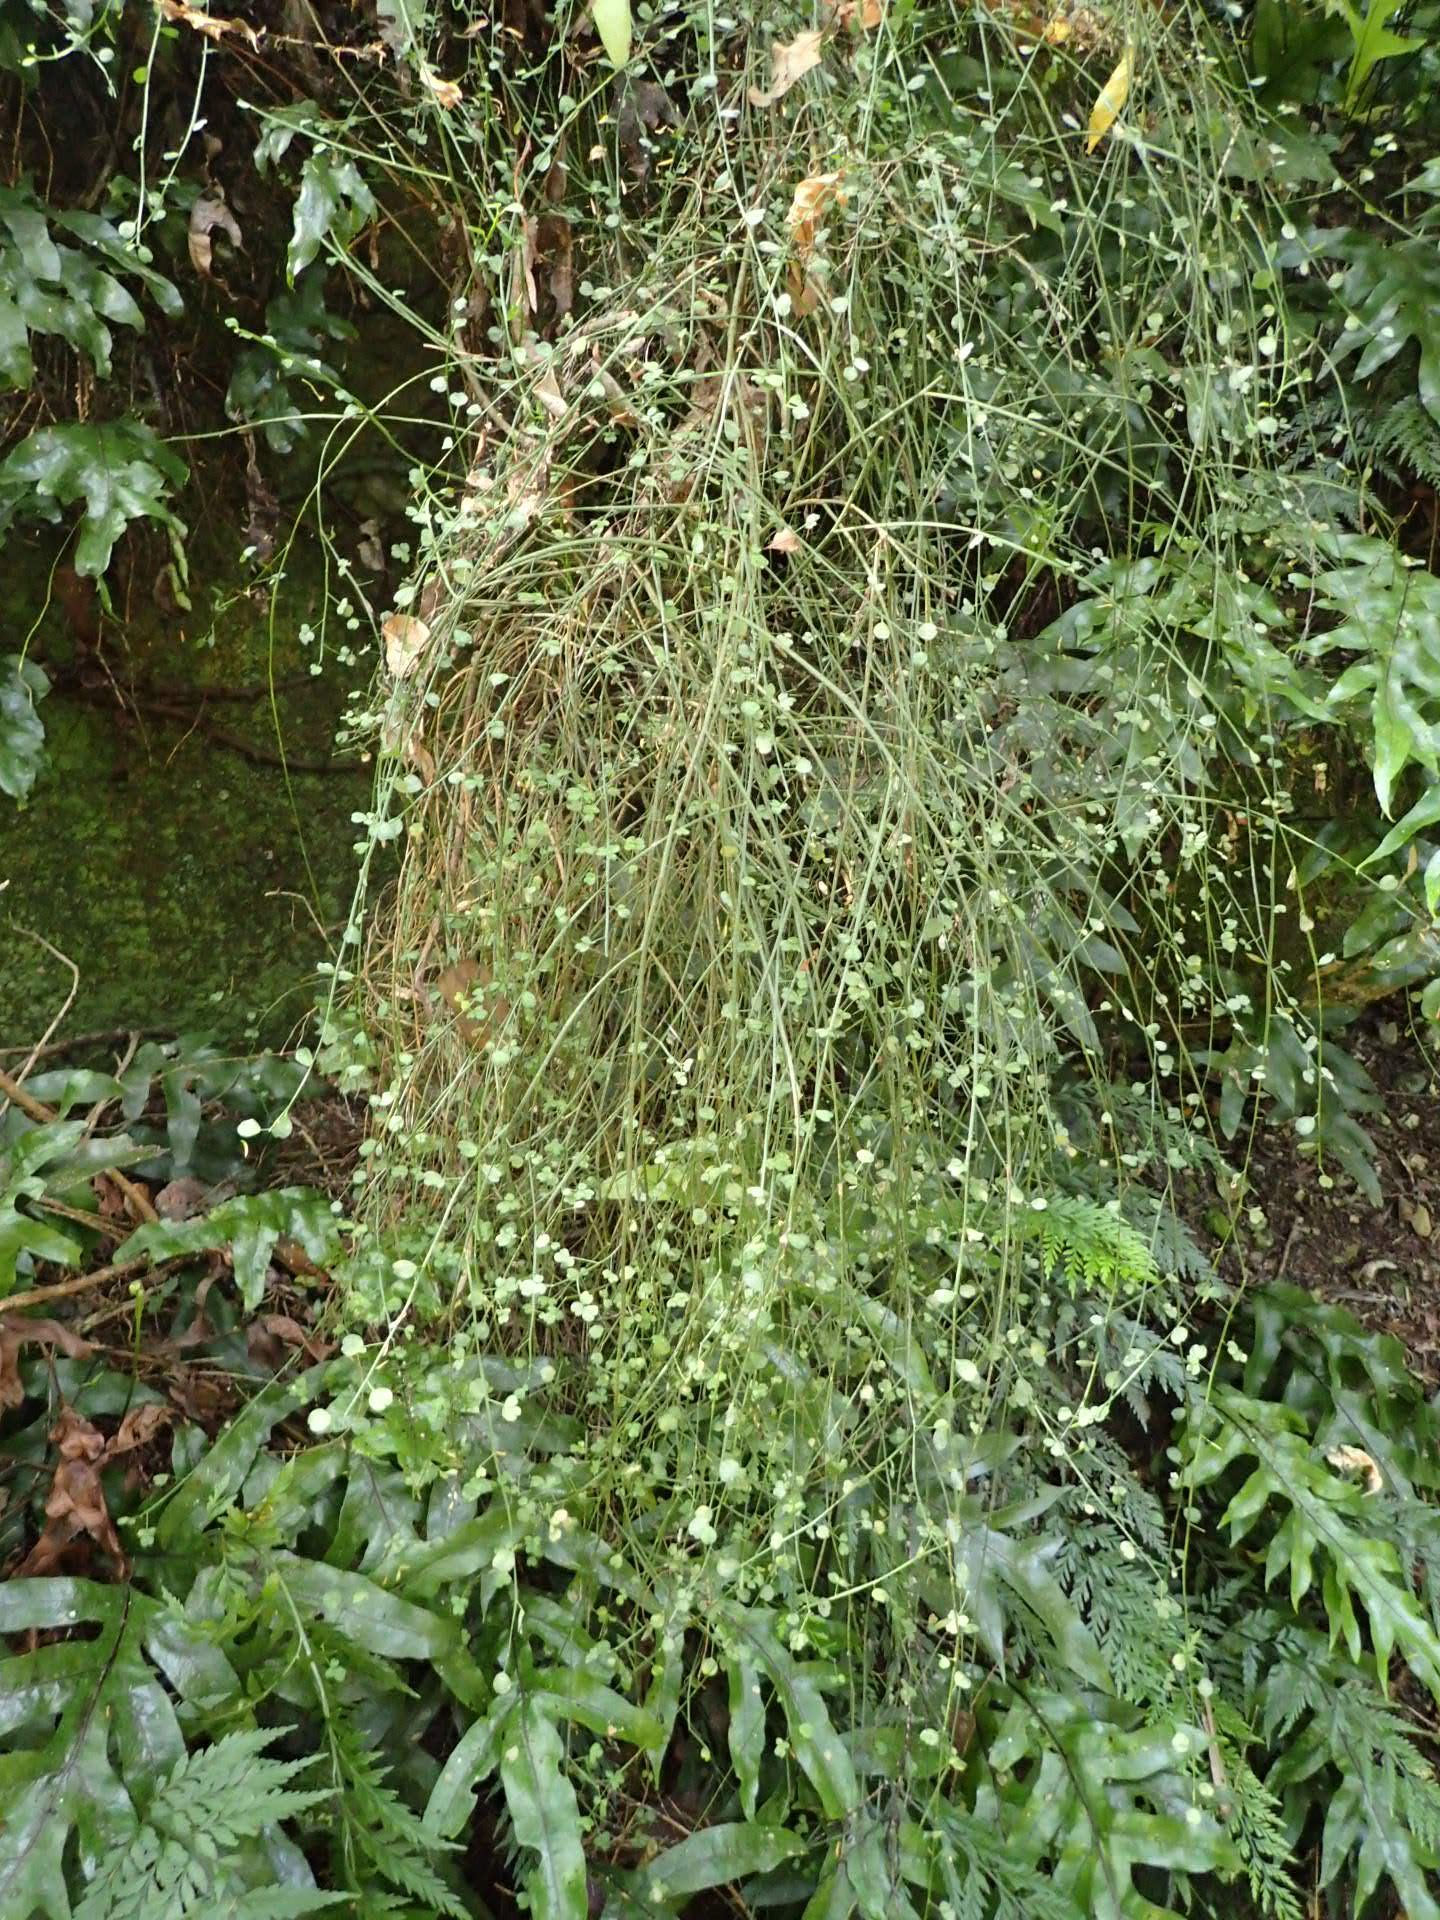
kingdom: Plantae
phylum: Tracheophyta
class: Magnoliopsida
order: Fabales
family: Fabaceae
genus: Carmichaelia
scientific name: Carmichaelia petriei
